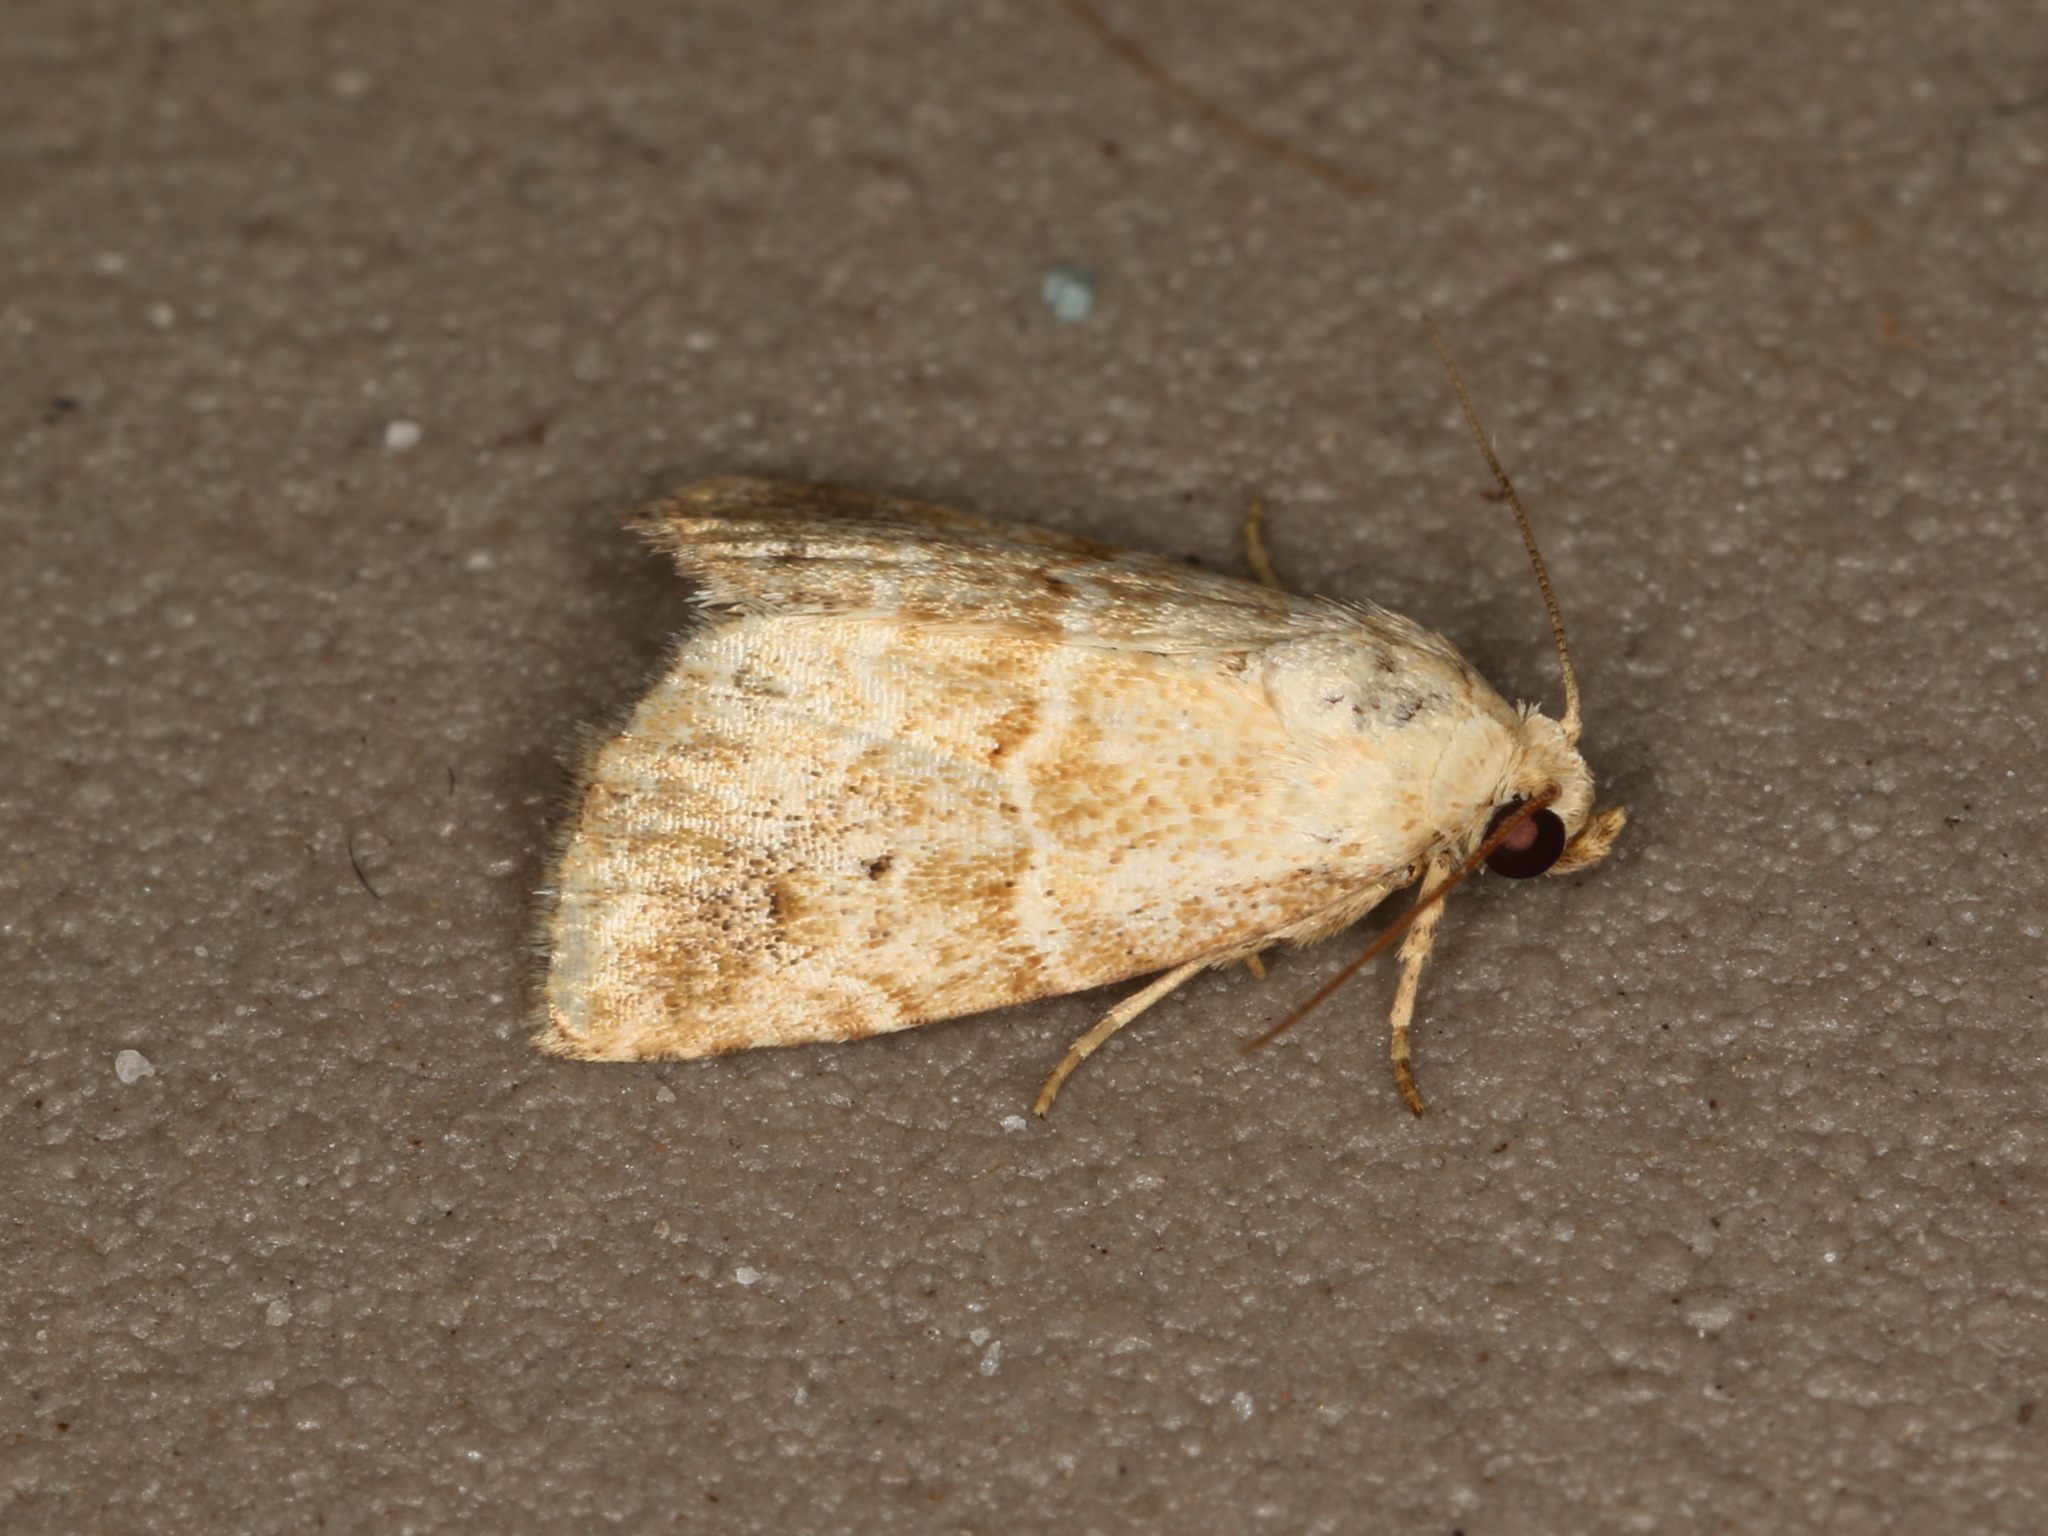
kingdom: Animalia
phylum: Arthropoda
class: Insecta
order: Lepidoptera
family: Noctuidae
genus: Maliattha
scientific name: Maliattha amorpha
